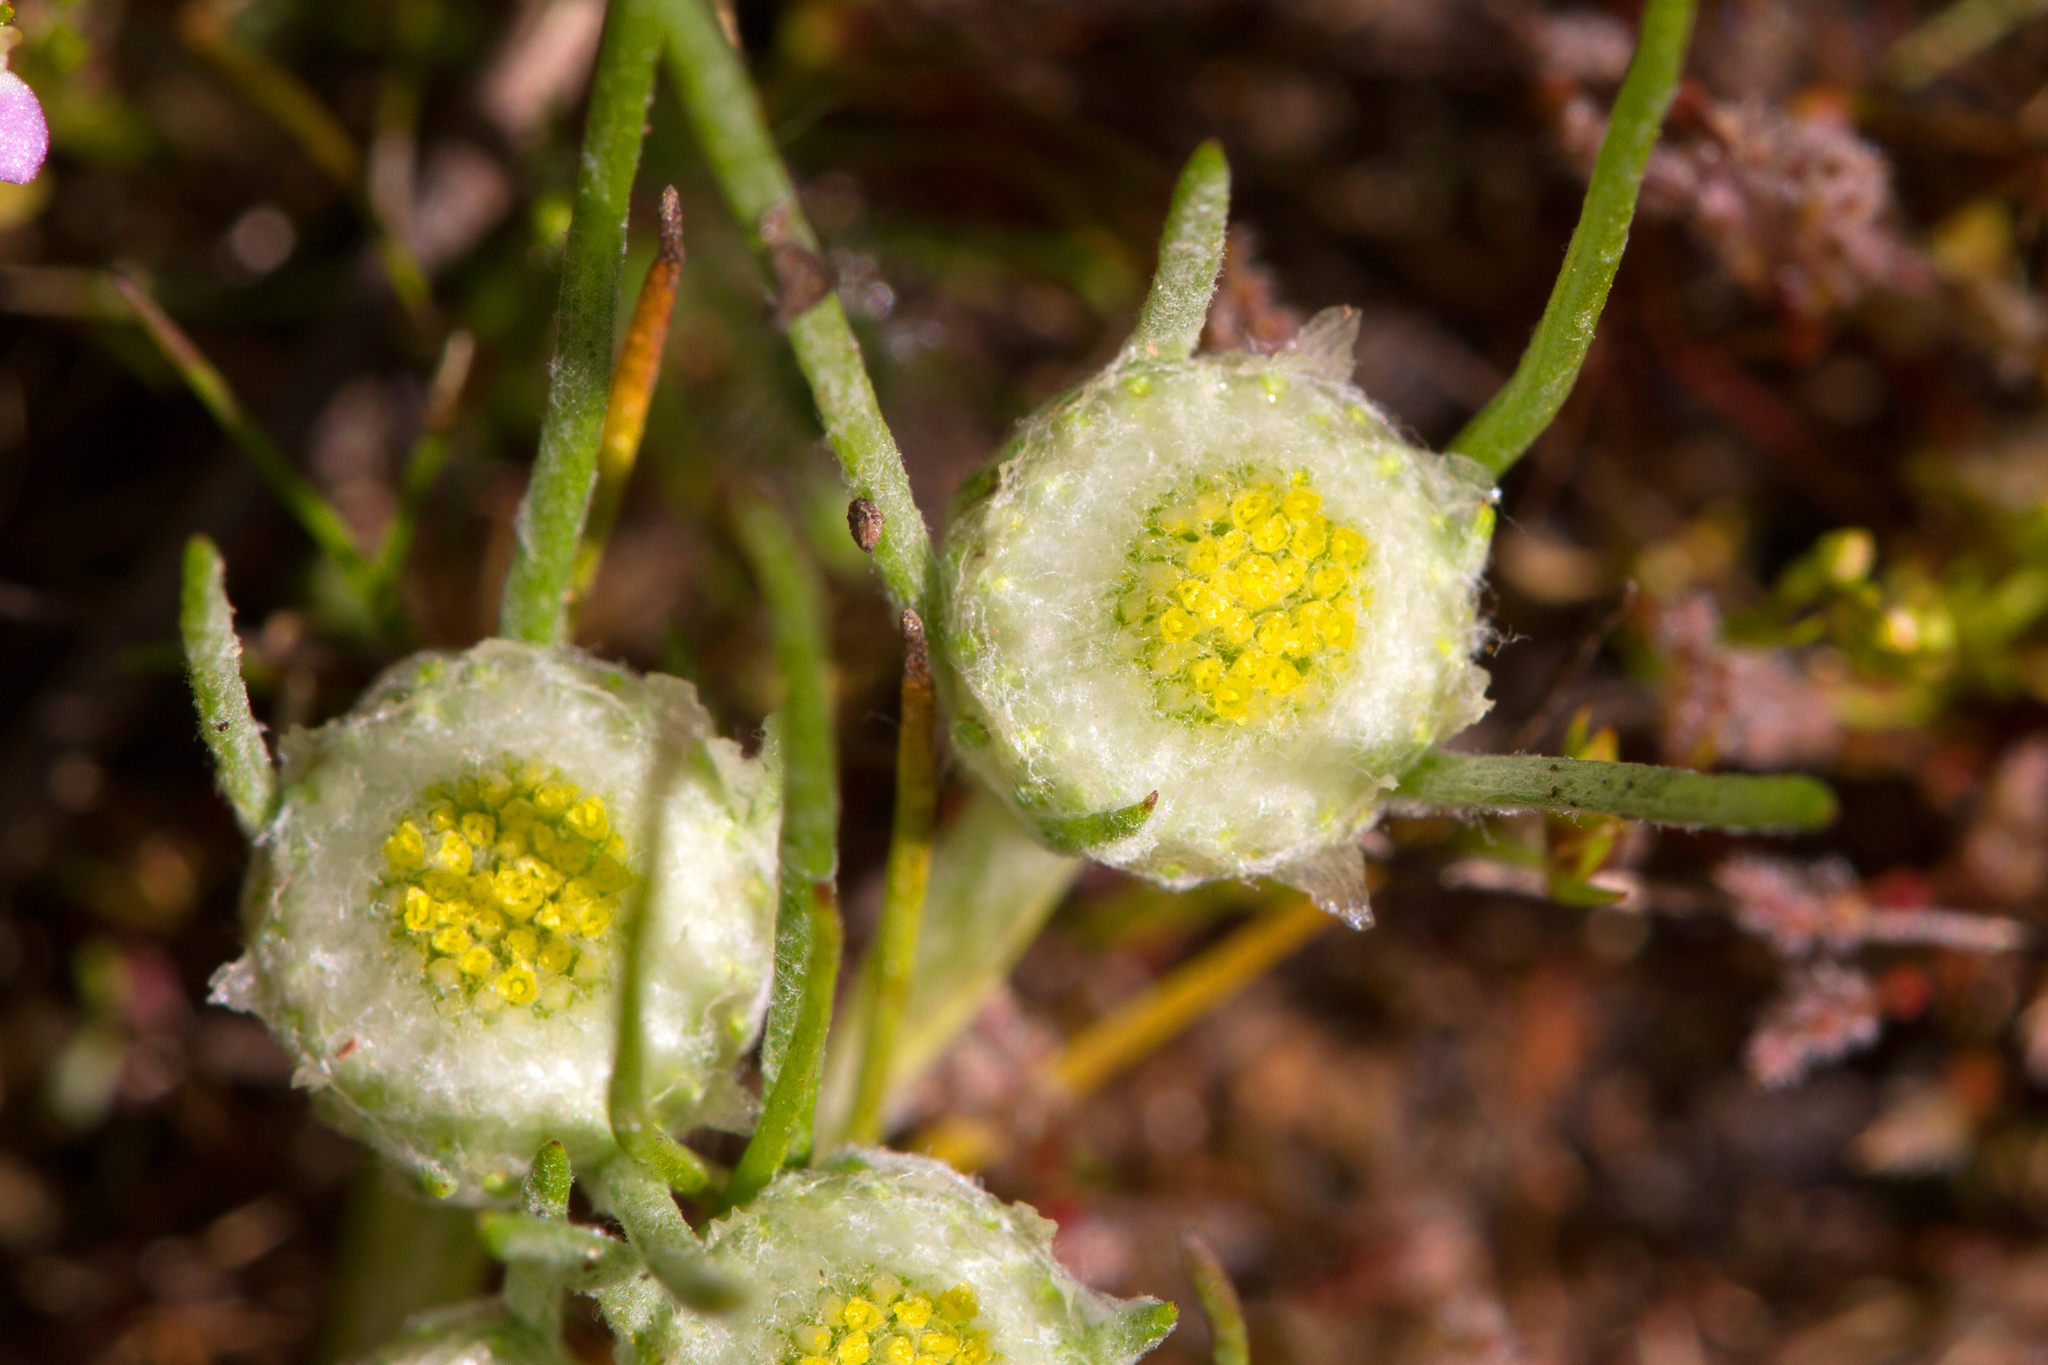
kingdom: Plantae
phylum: Tracheophyta
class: Magnoliopsida
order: Asterales
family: Asteraceae
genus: Myriocephalus
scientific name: Myriocephalus rhizocephalus
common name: Tufted woolly-heads
